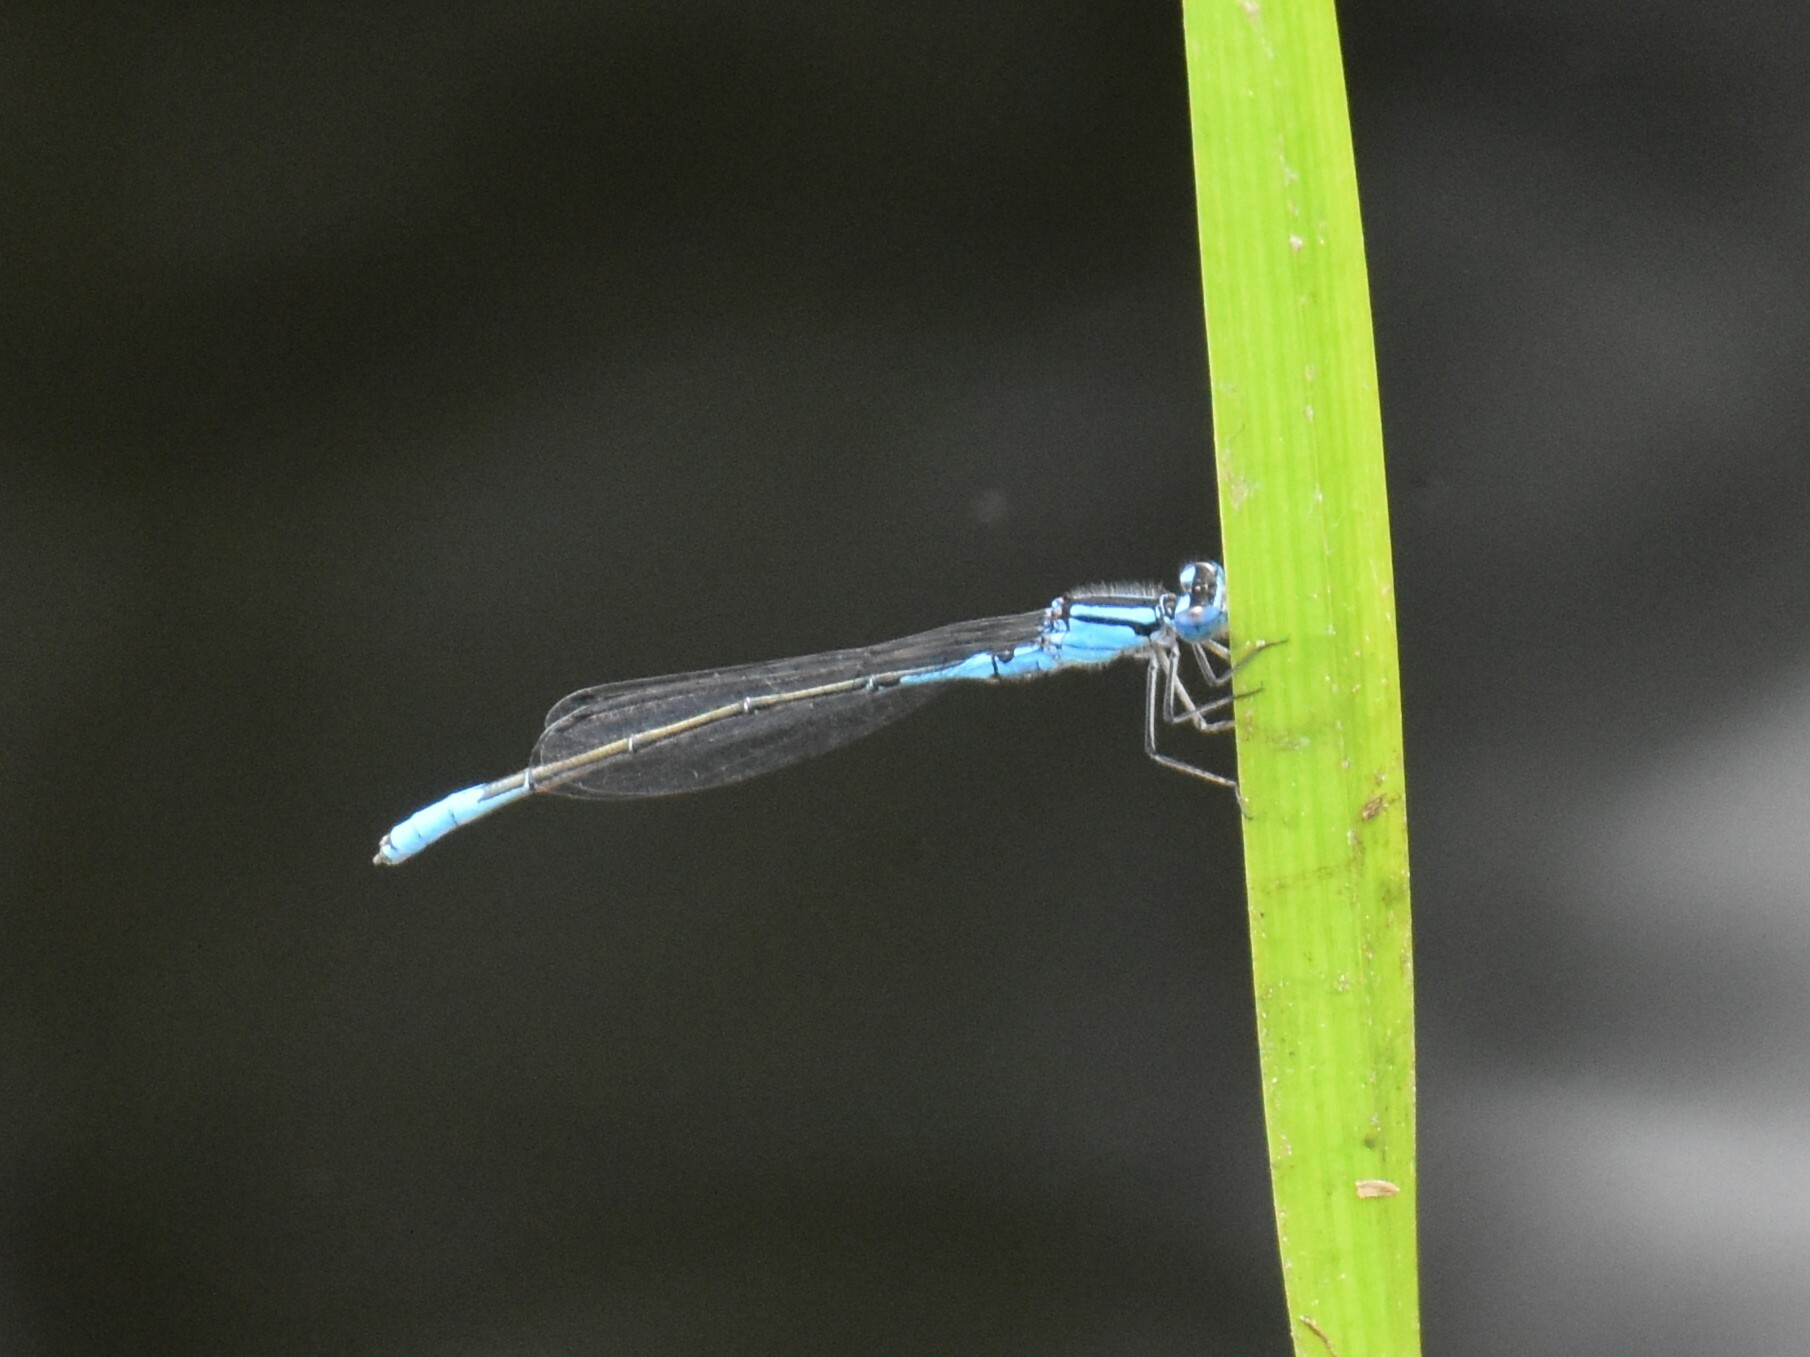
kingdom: Animalia
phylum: Arthropoda
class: Insecta
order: Odonata
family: Coenagrionidae
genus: Enallagma
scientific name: Enallagma aspersum
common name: Azure bluet
